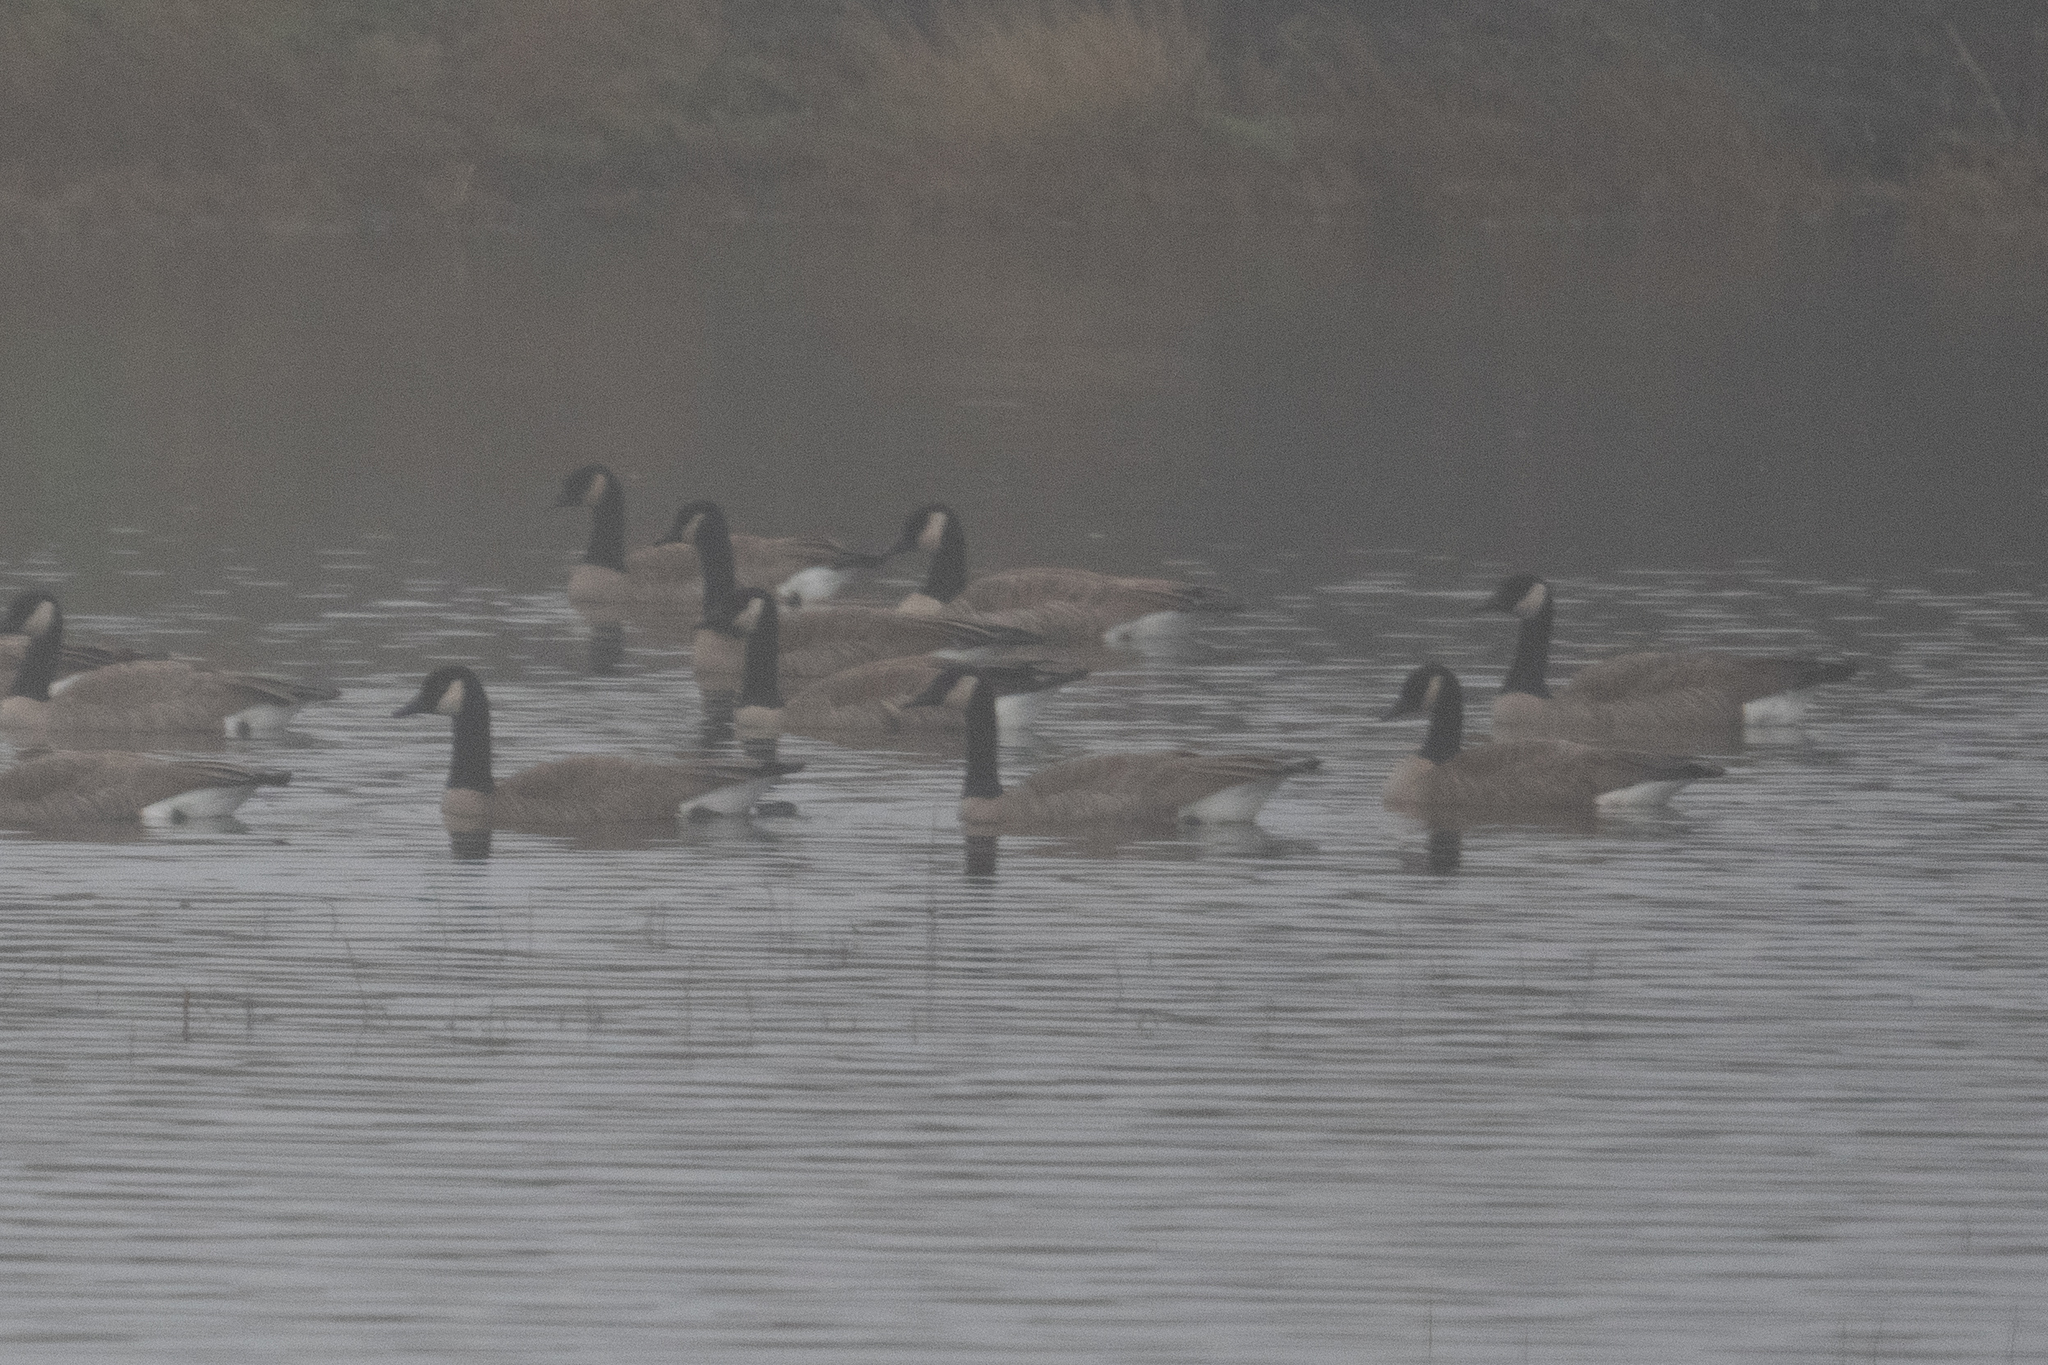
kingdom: Animalia
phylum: Chordata
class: Aves
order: Anseriformes
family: Anatidae
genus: Branta
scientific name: Branta canadensis
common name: Canada goose
